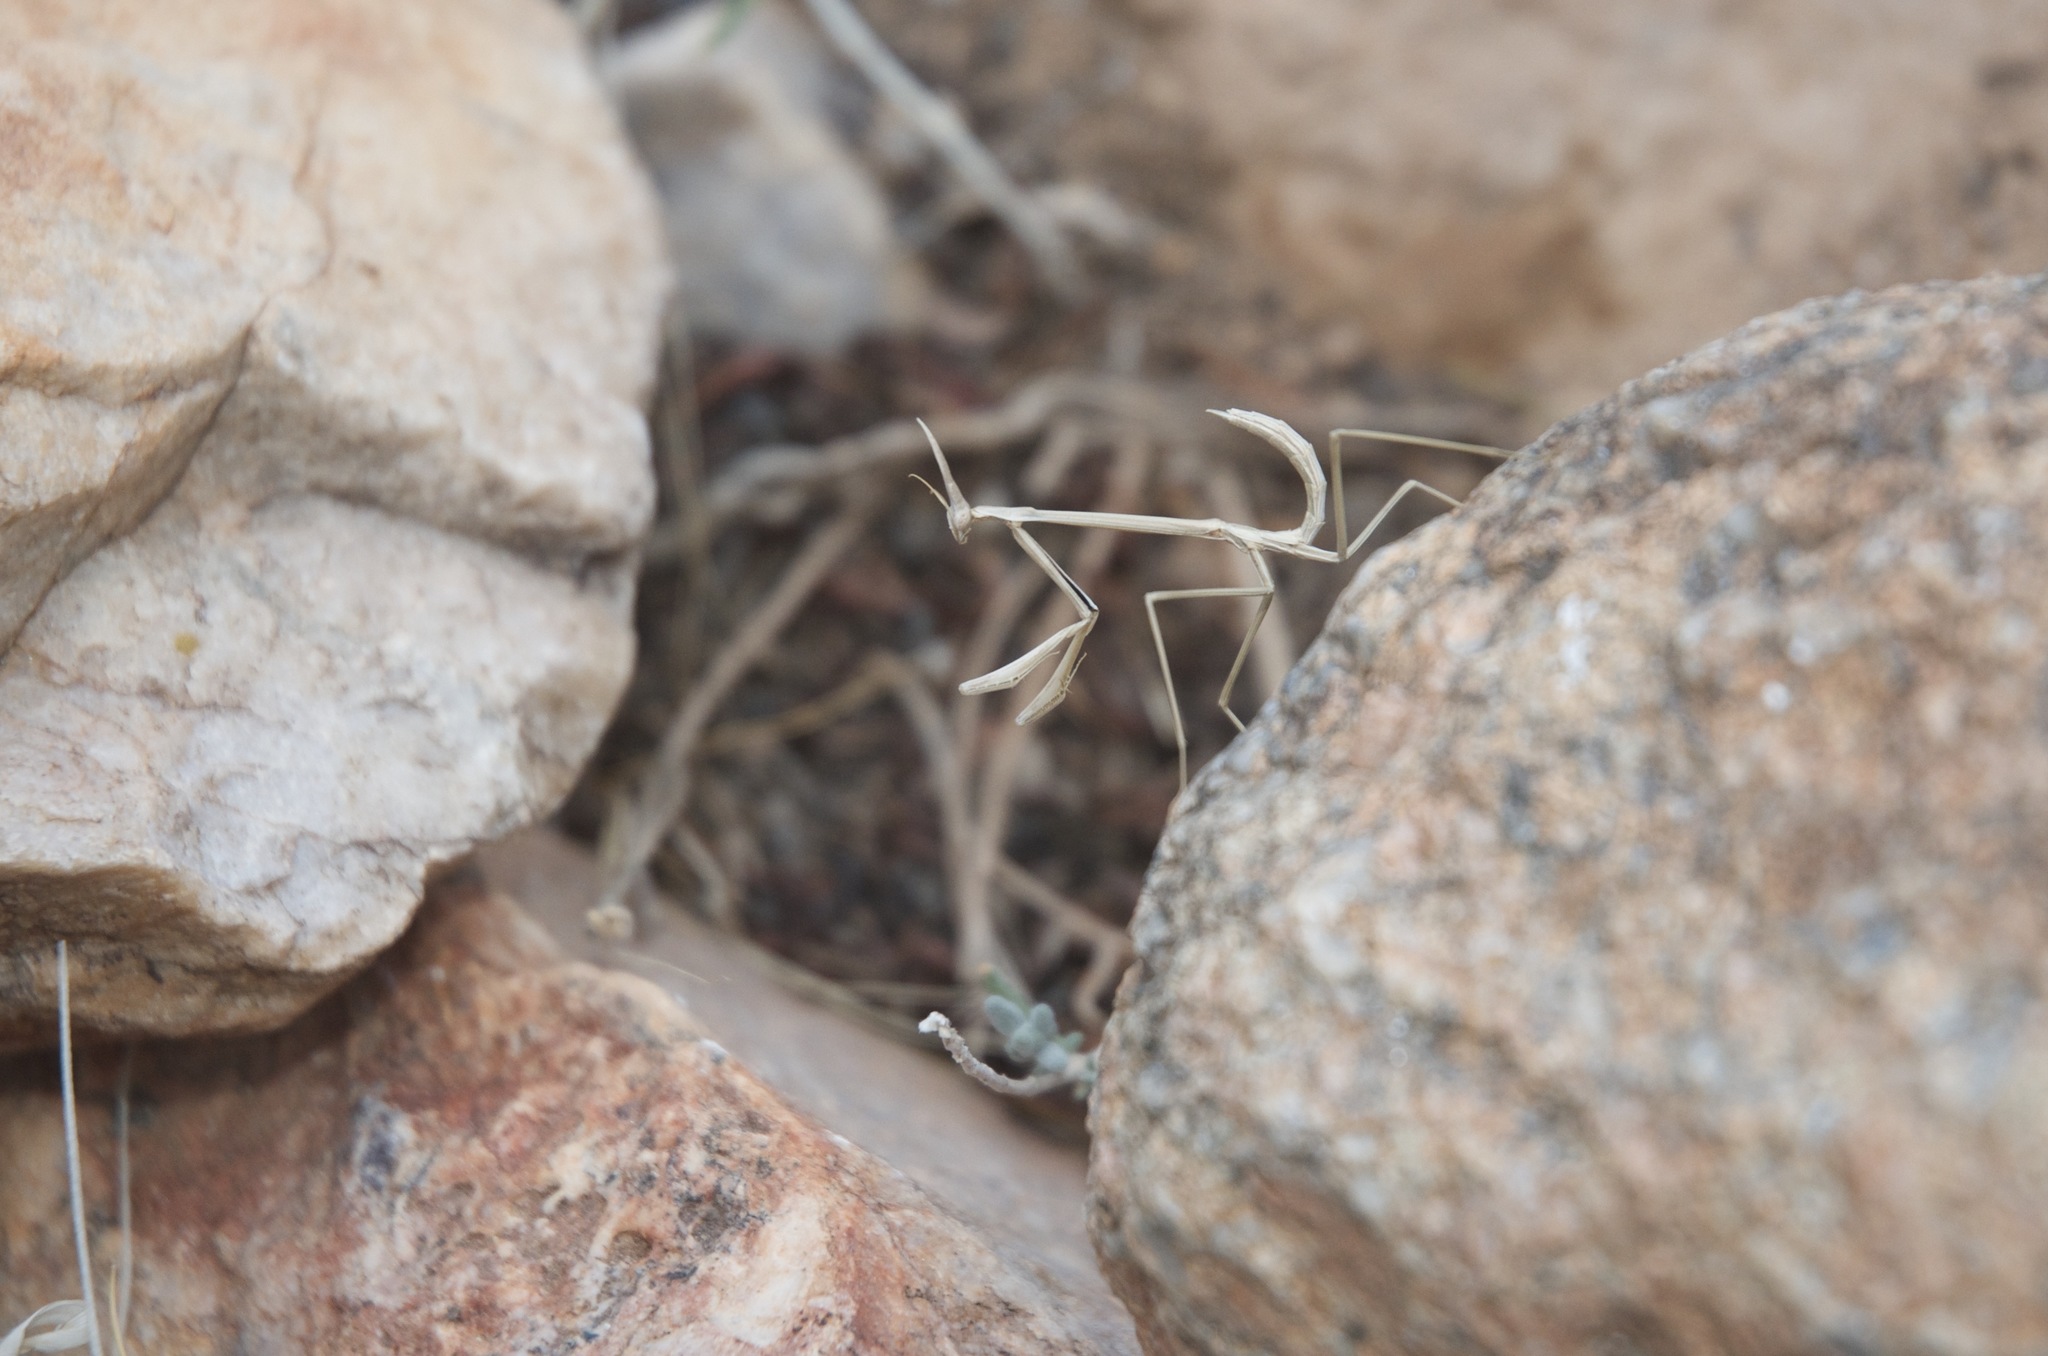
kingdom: Animalia
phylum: Arthropoda
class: Insecta
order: Mantodea
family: Empusidae
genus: Hypsicorypha
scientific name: Hypsicorypha gracilis
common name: Sublime conehead mantis
